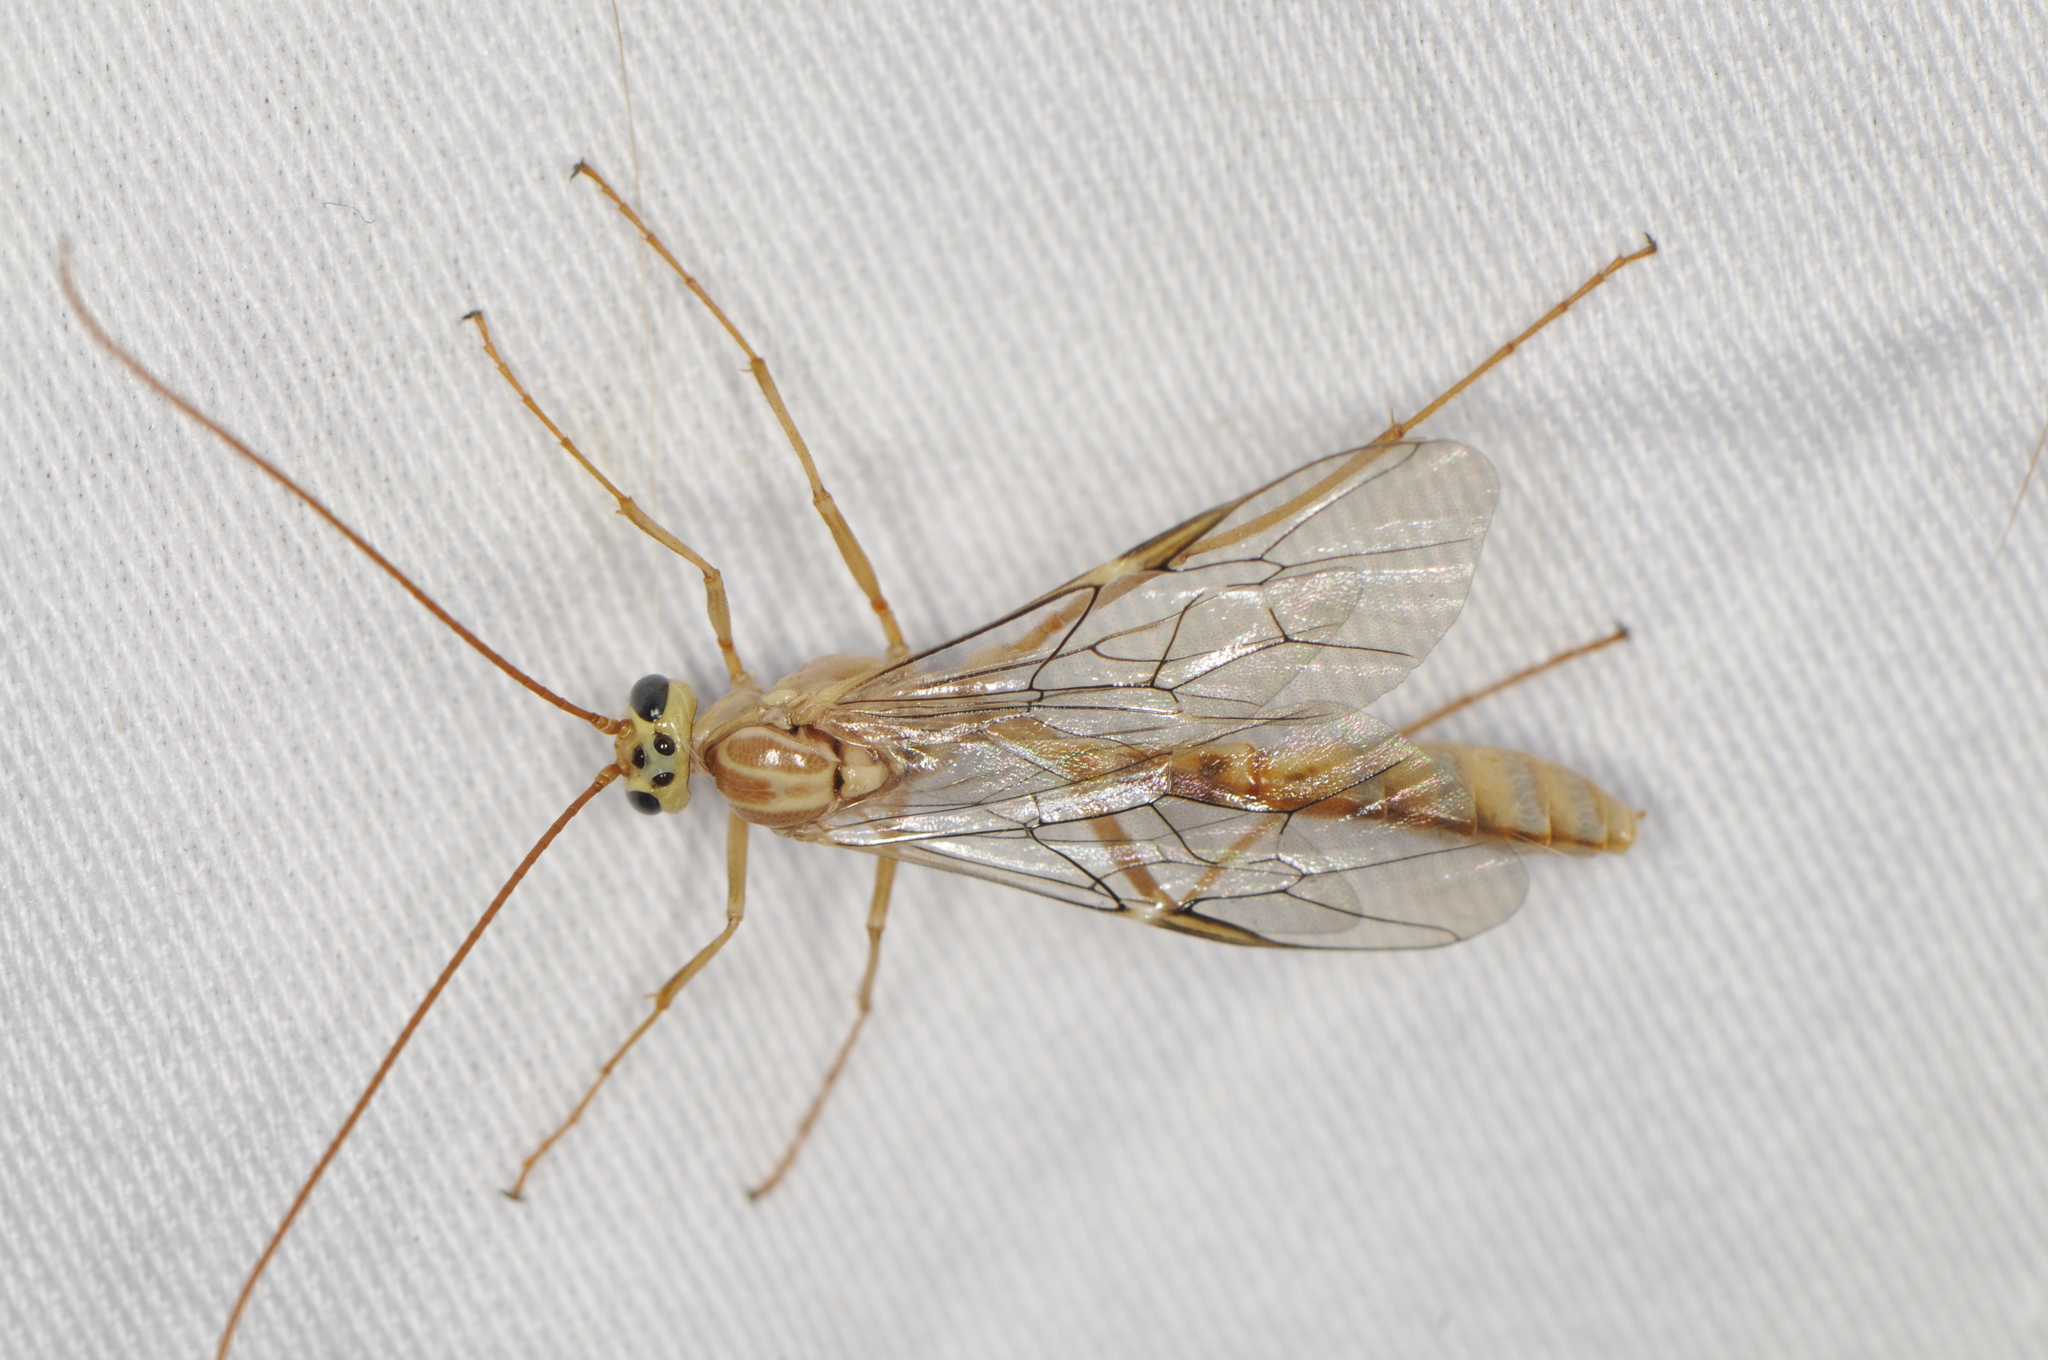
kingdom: Animalia
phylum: Arthropoda
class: Insecta
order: Hymenoptera
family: Ichneumonidae
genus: Eremotylus
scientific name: Eremotylus
